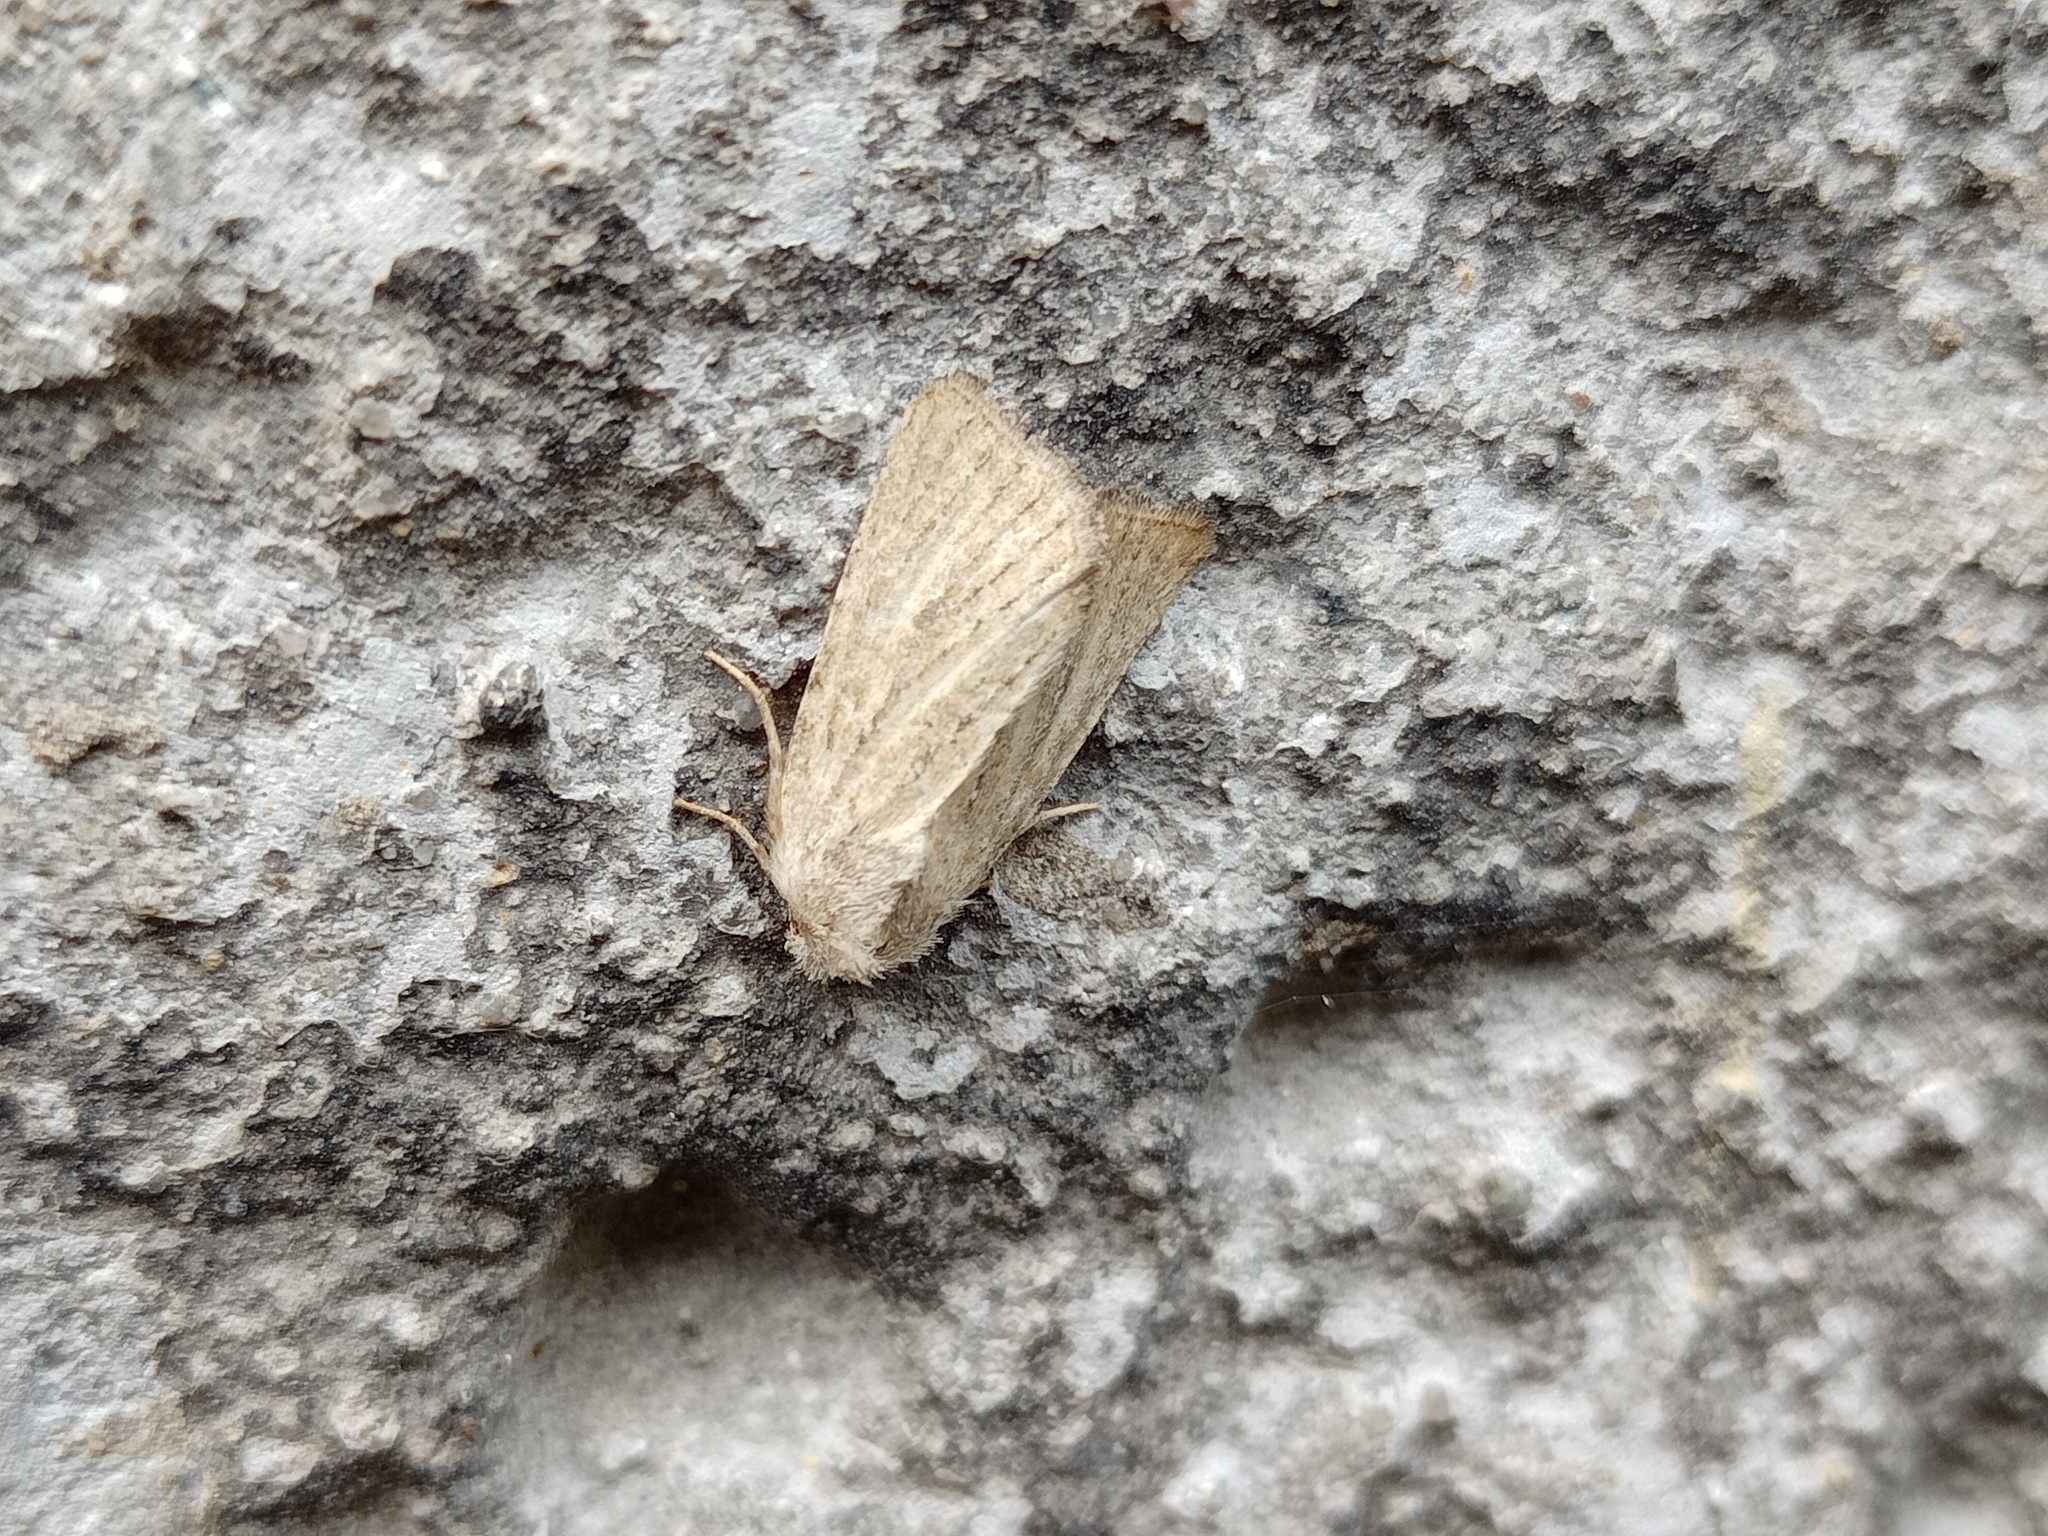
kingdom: Animalia
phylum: Arthropoda
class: Insecta
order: Lepidoptera
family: Noctuidae
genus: Photedes
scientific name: Photedes fluxa
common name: Mere wainscot
